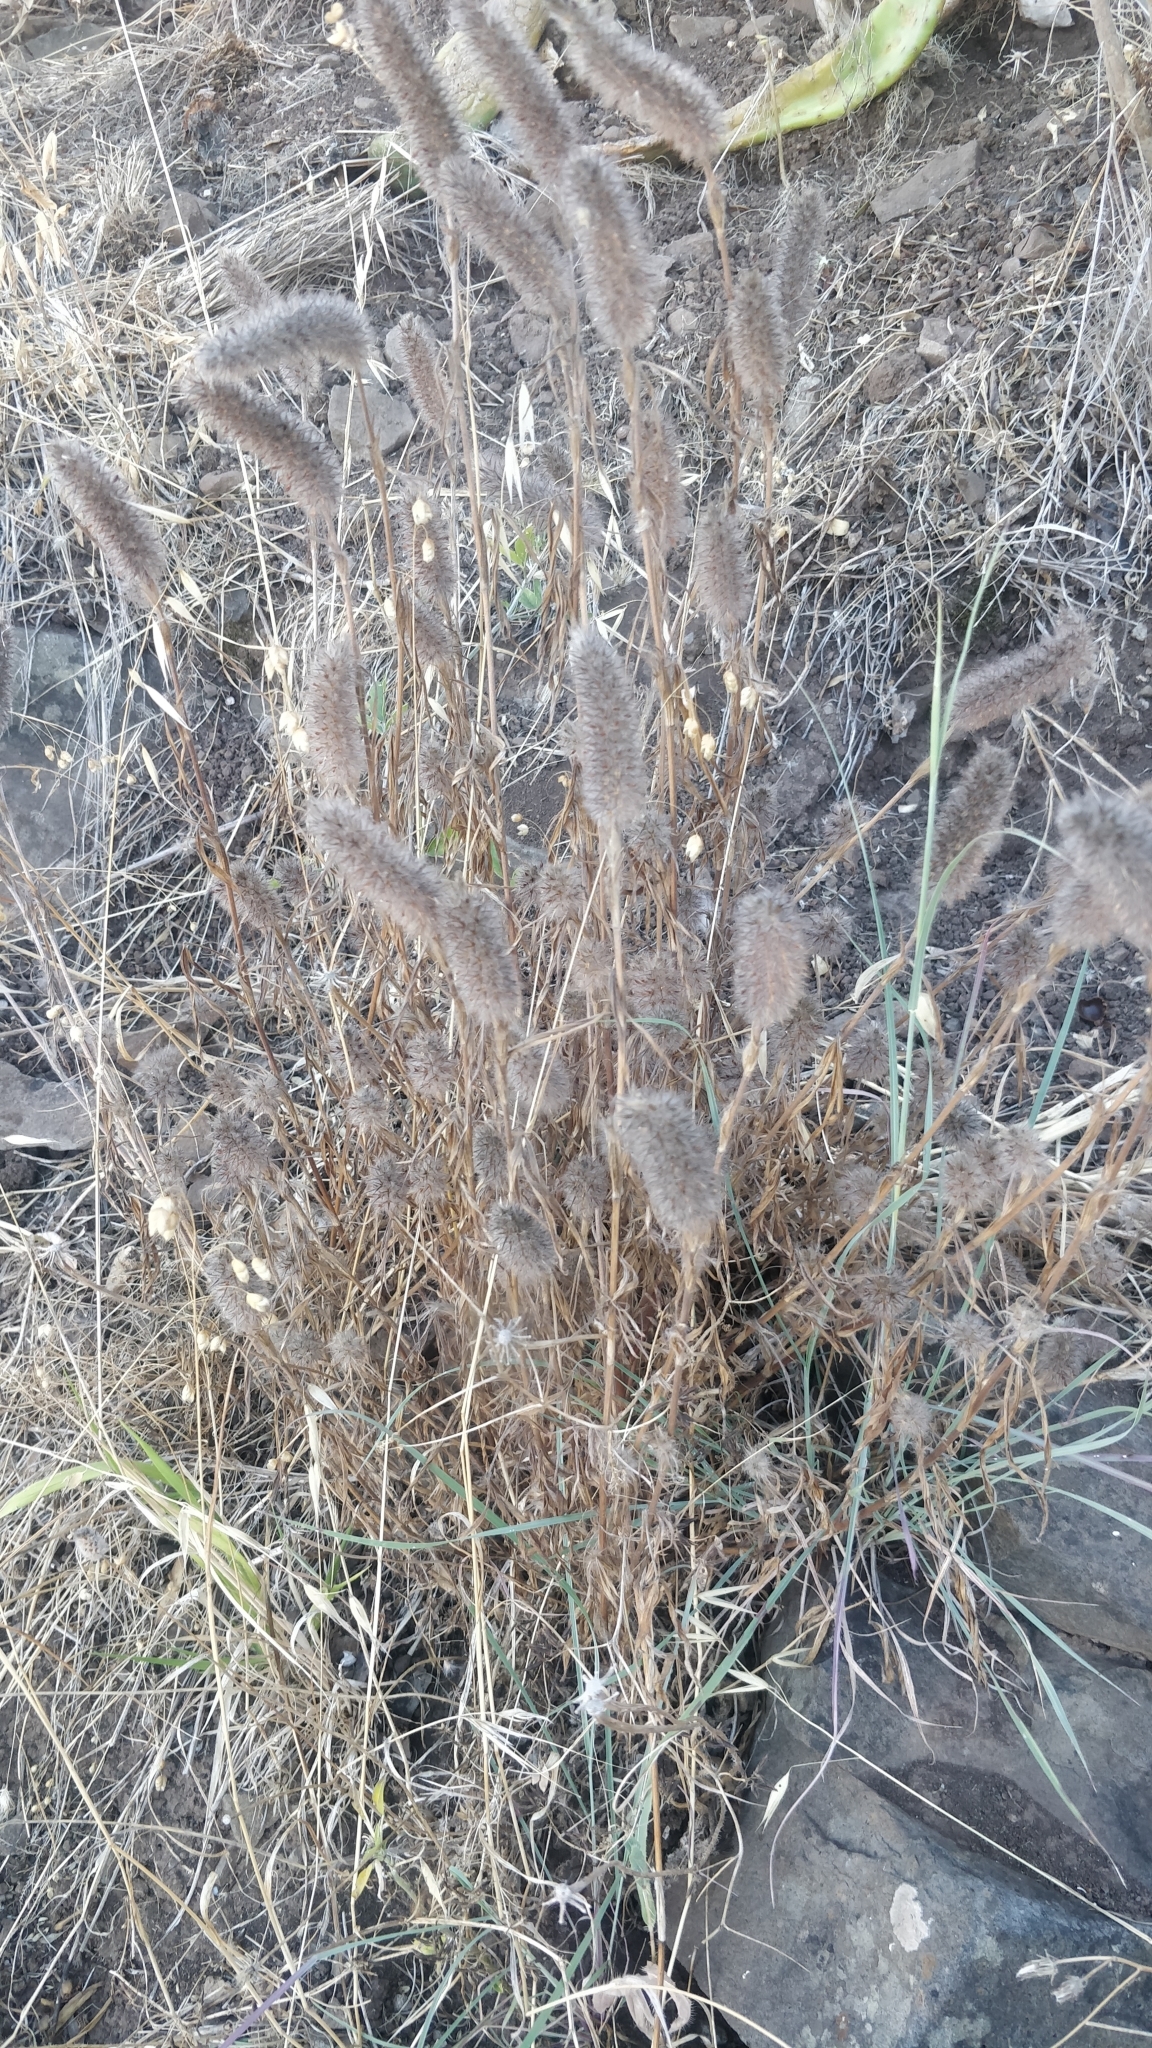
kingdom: Plantae
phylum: Tracheophyta
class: Magnoliopsida
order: Fabales
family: Fabaceae
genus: Trifolium
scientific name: Trifolium angustifolium
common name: Narrow clover
